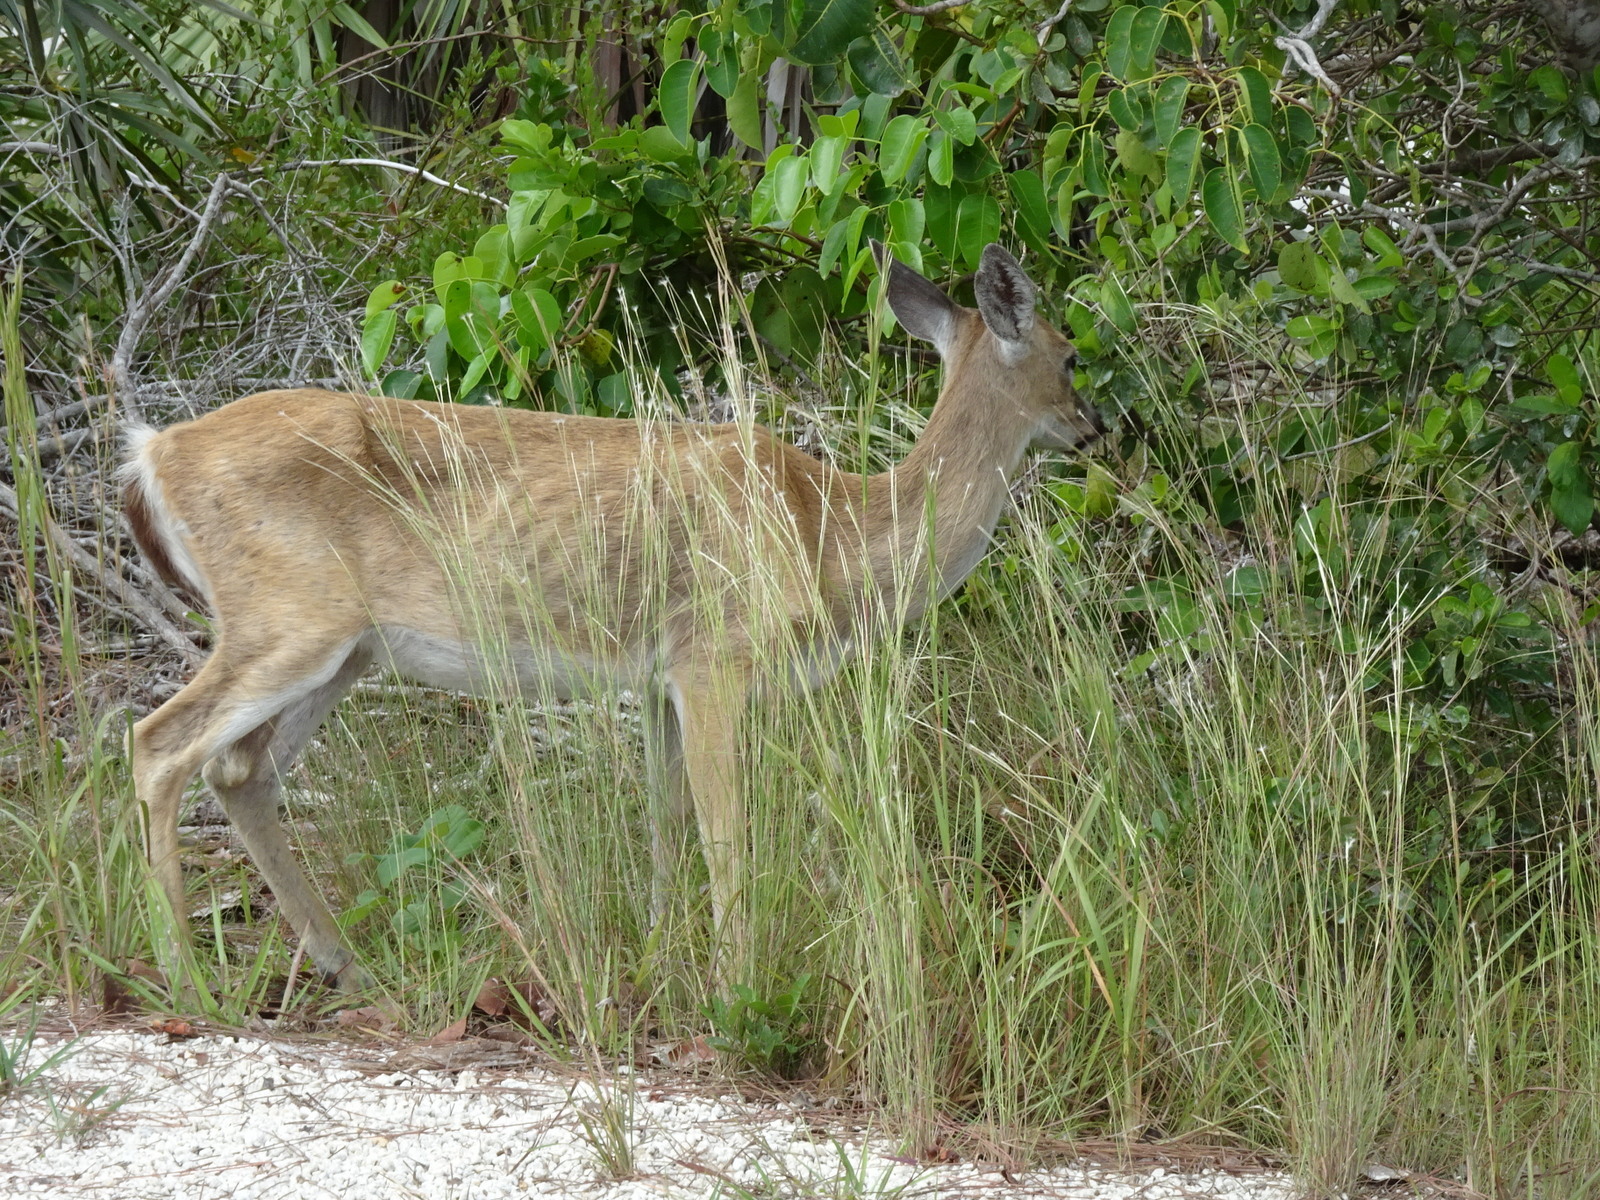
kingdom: Animalia
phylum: Chordata
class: Mammalia
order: Artiodactyla
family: Cervidae
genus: Odocoileus
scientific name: Odocoileus virginianus
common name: White-tailed deer
